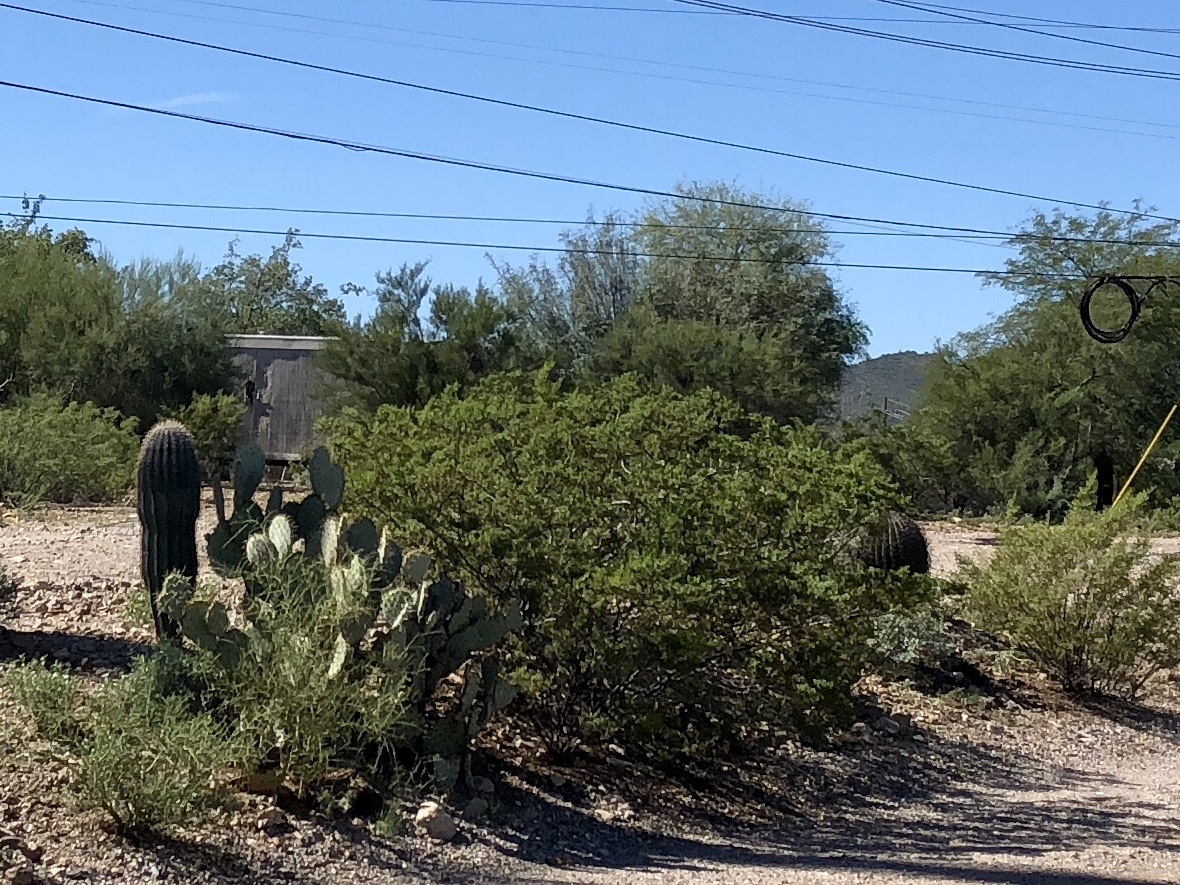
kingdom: Plantae
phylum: Tracheophyta
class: Magnoliopsida
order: Zygophyllales
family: Zygophyllaceae
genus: Larrea
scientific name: Larrea tridentata
